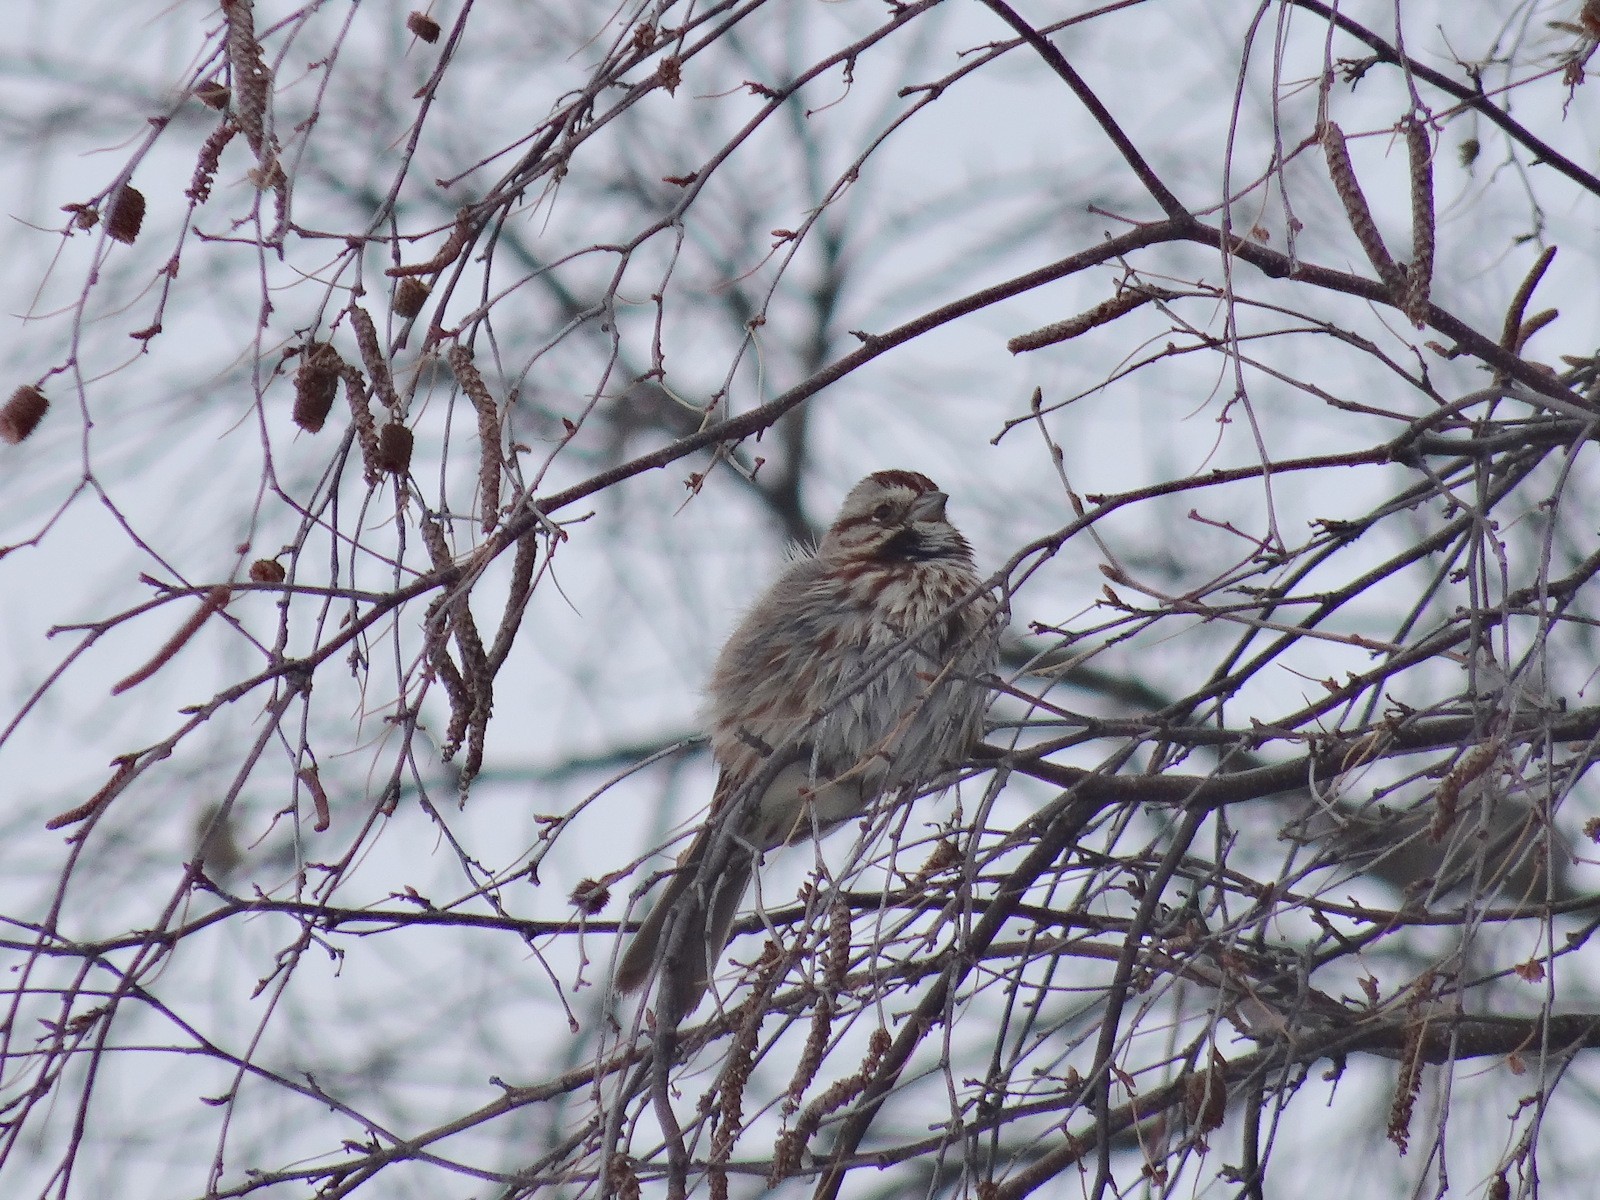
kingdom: Animalia
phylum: Chordata
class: Aves
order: Passeriformes
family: Passerellidae
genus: Melospiza
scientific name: Melospiza melodia
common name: Song sparrow
